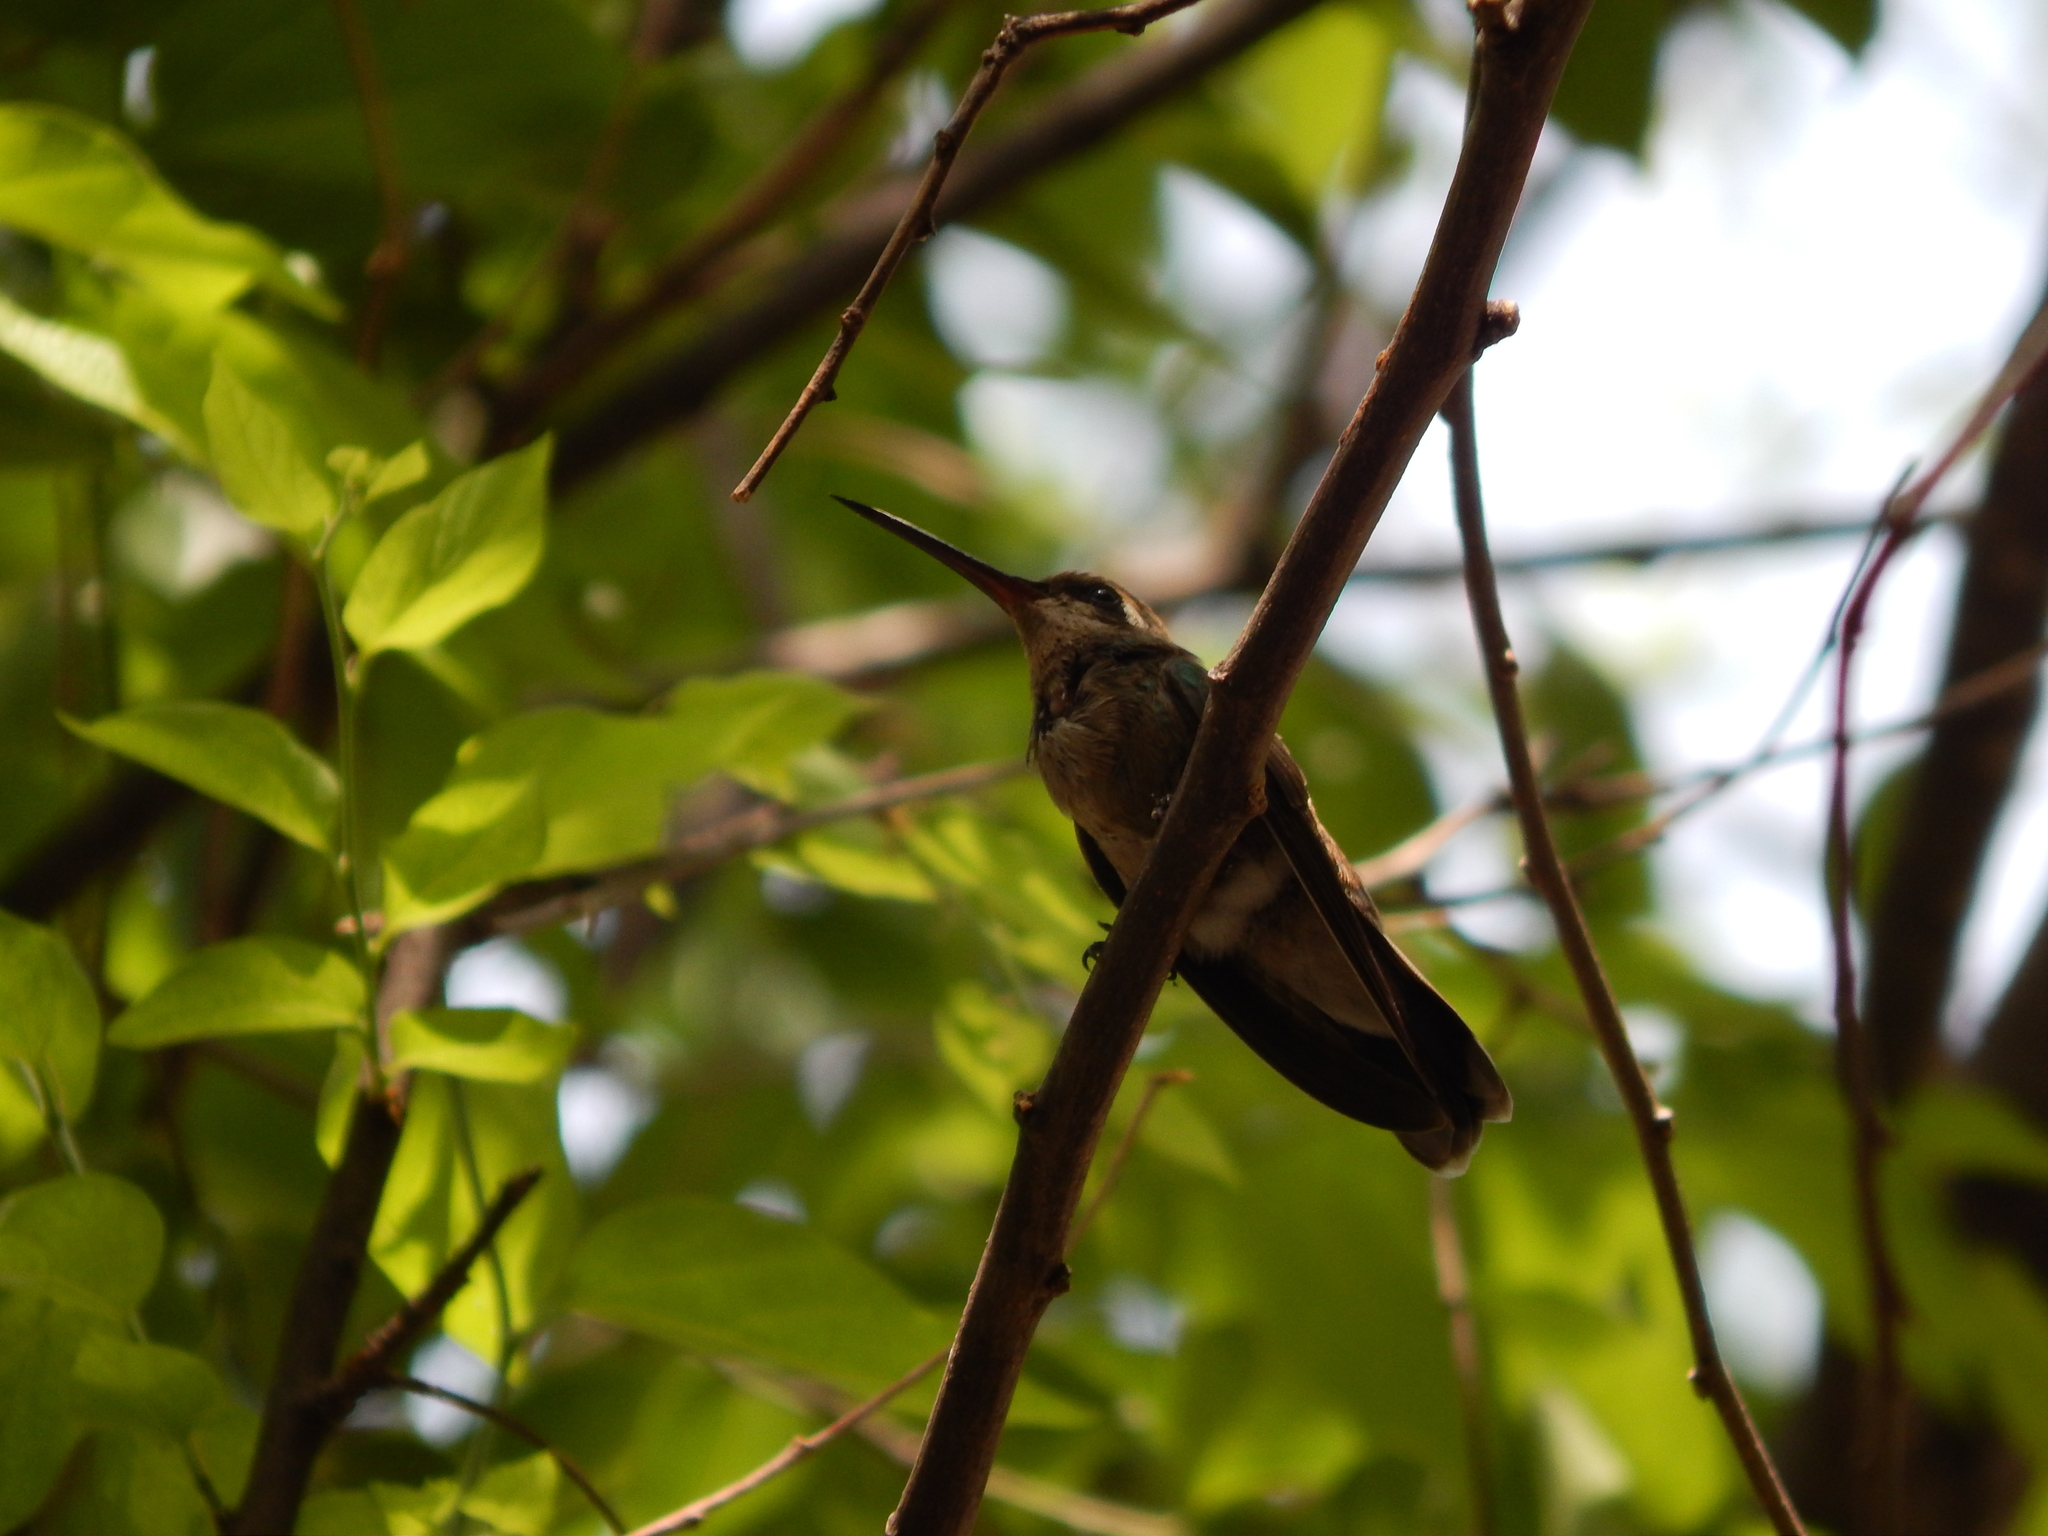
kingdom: Animalia
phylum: Chordata
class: Aves
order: Apodiformes
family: Trochilidae
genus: Cynanthus
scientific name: Cynanthus latirostris
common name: Broad-billed hummingbird
